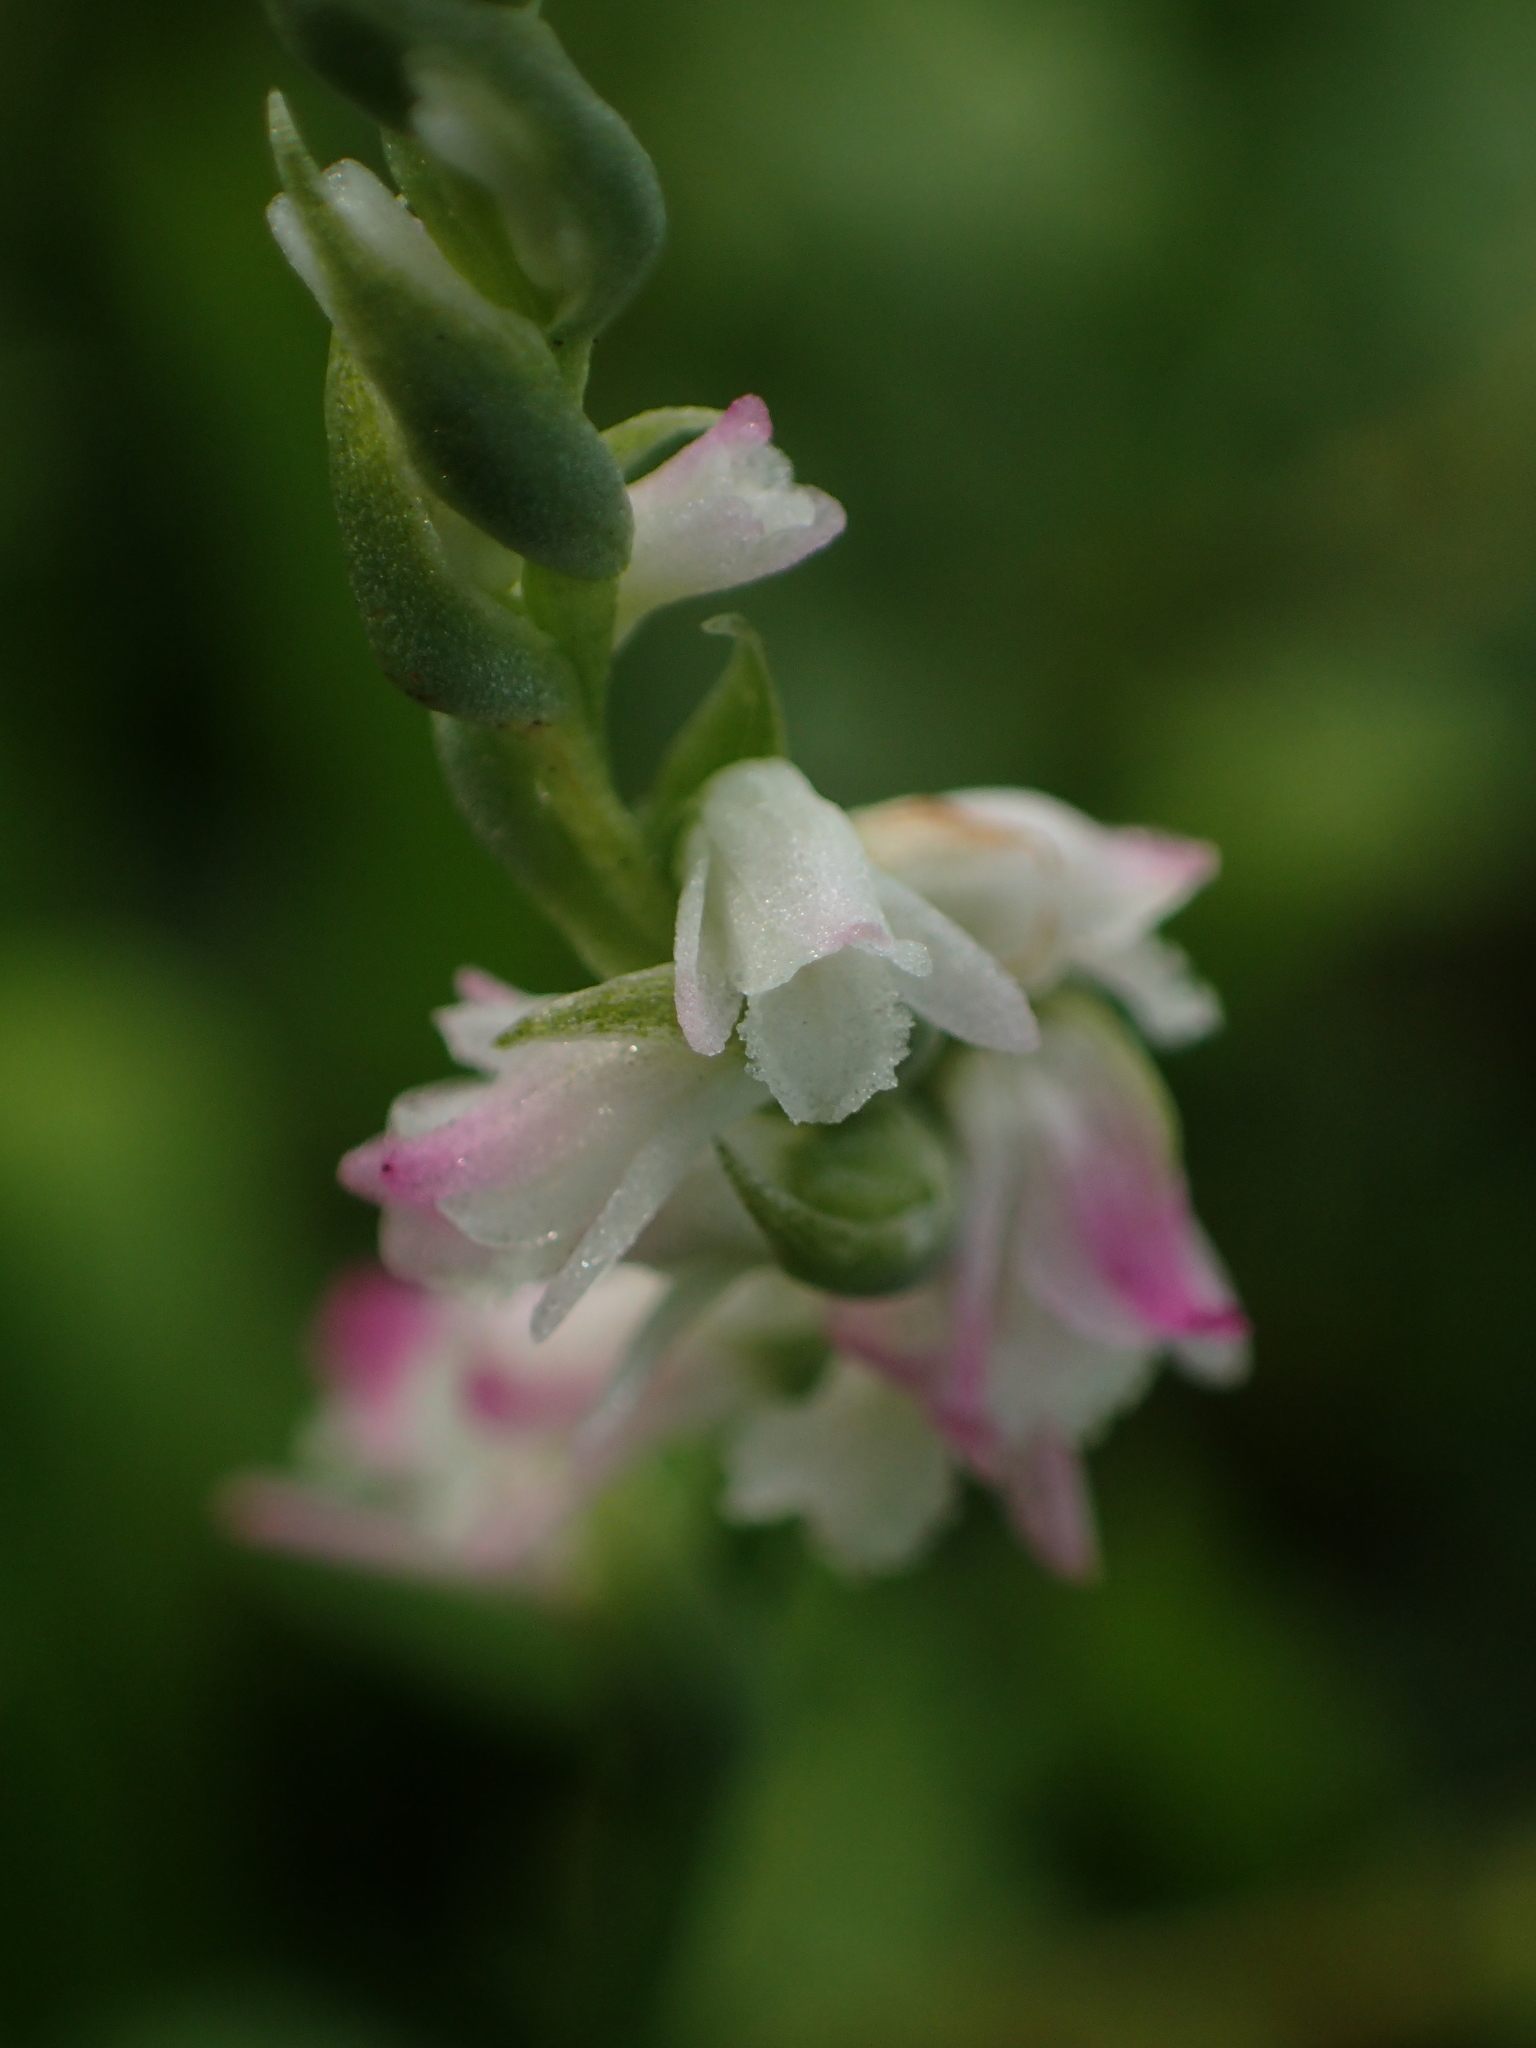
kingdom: Plantae
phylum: Tracheophyta
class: Liliopsida
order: Asparagales
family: Orchidaceae
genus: Spiranthes
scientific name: Spiranthes sinensis
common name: Chinese spiranthes
